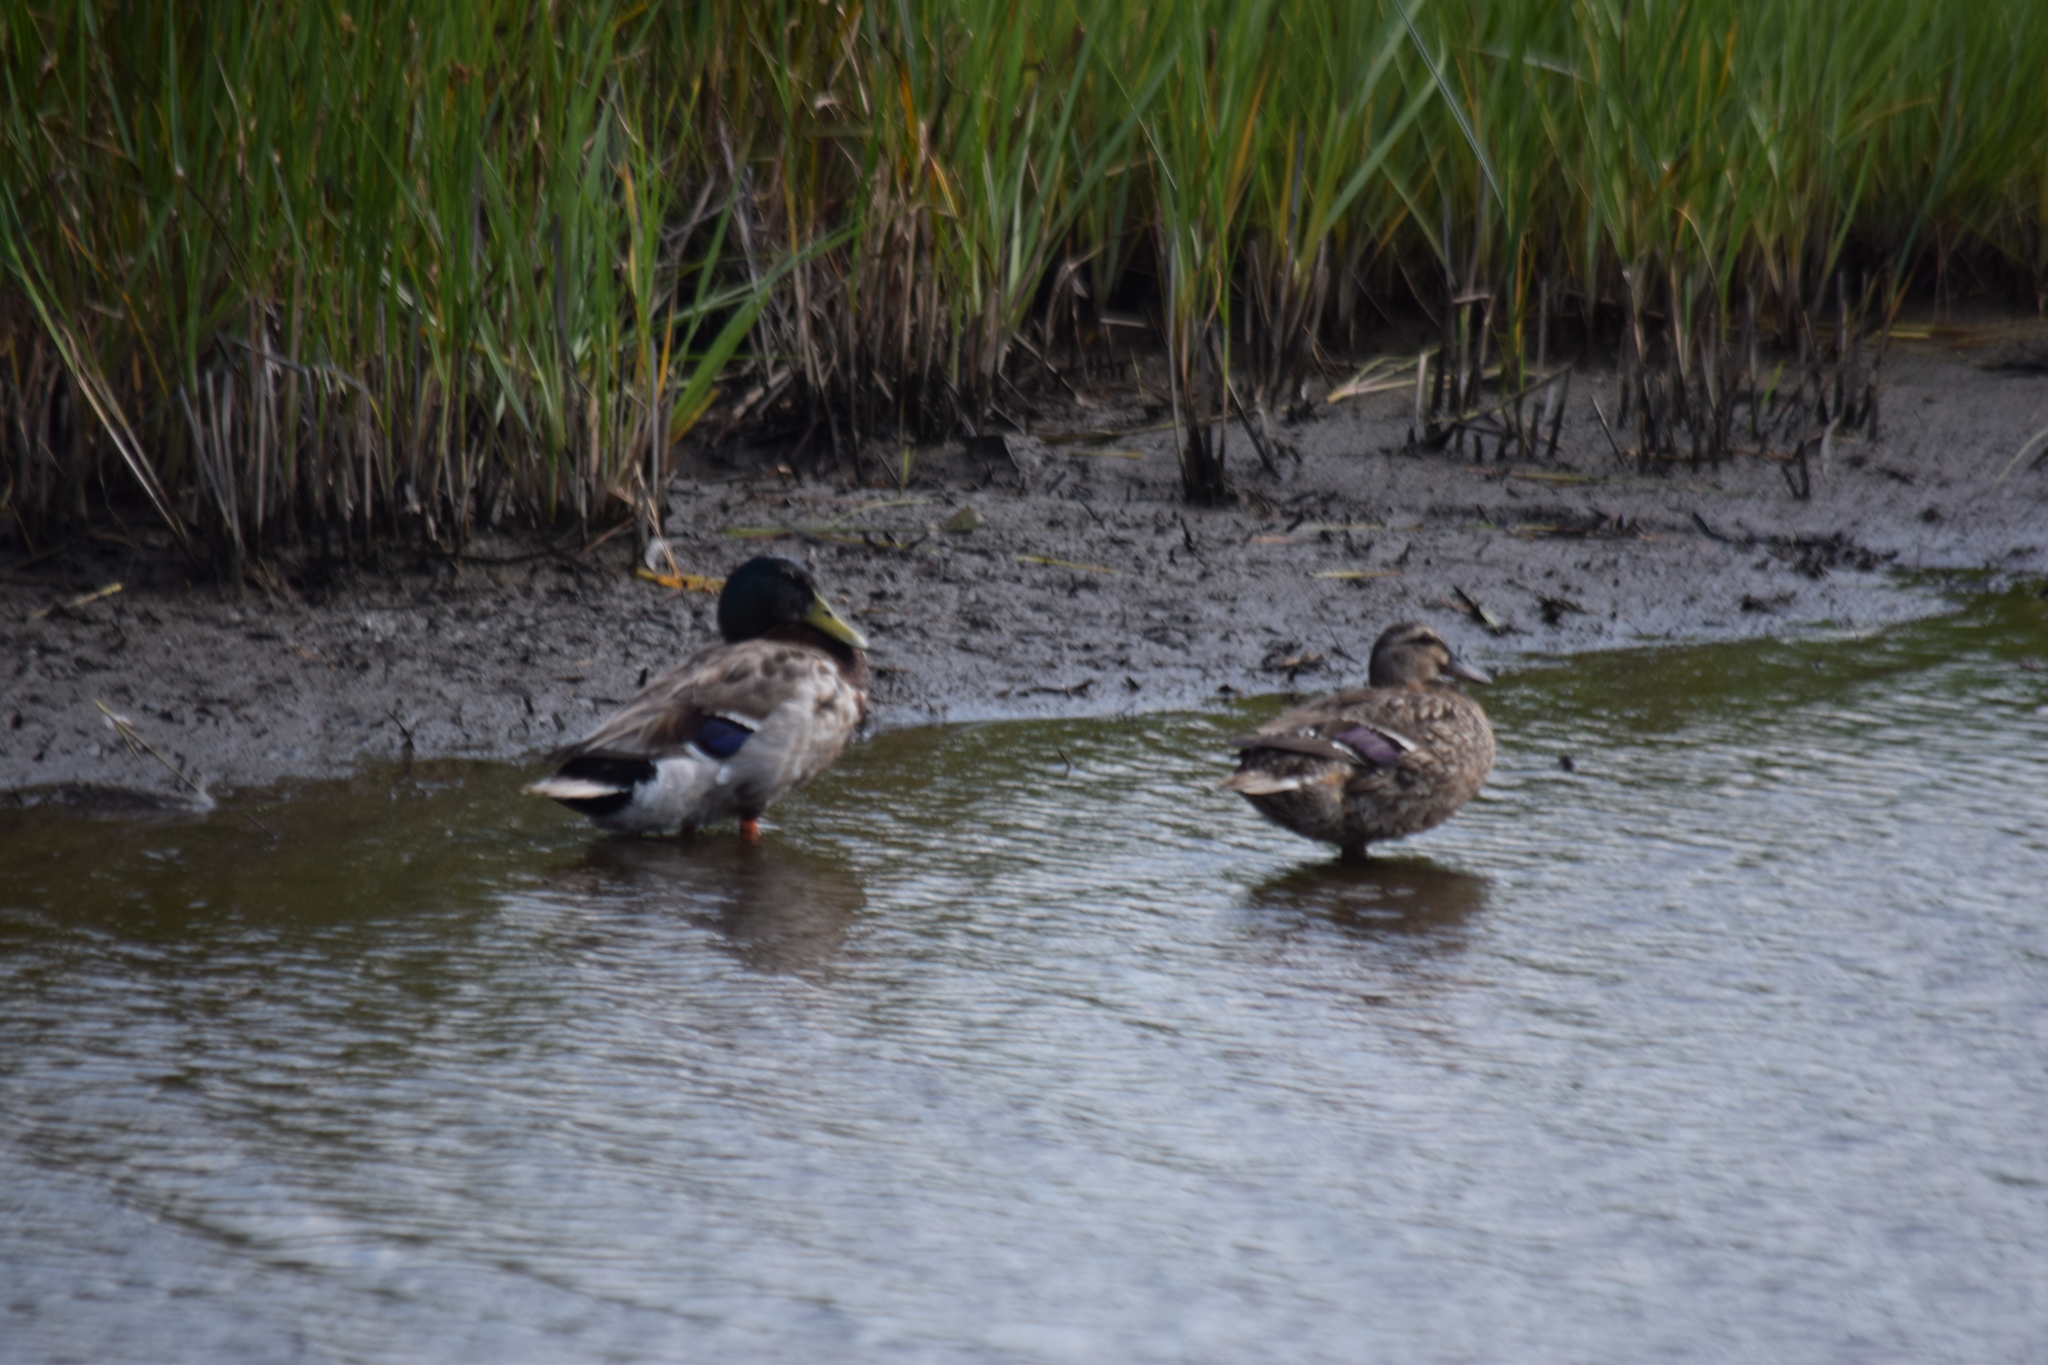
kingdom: Animalia
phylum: Chordata
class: Aves
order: Anseriformes
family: Anatidae
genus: Anas
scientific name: Anas platyrhynchos
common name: Mallard
